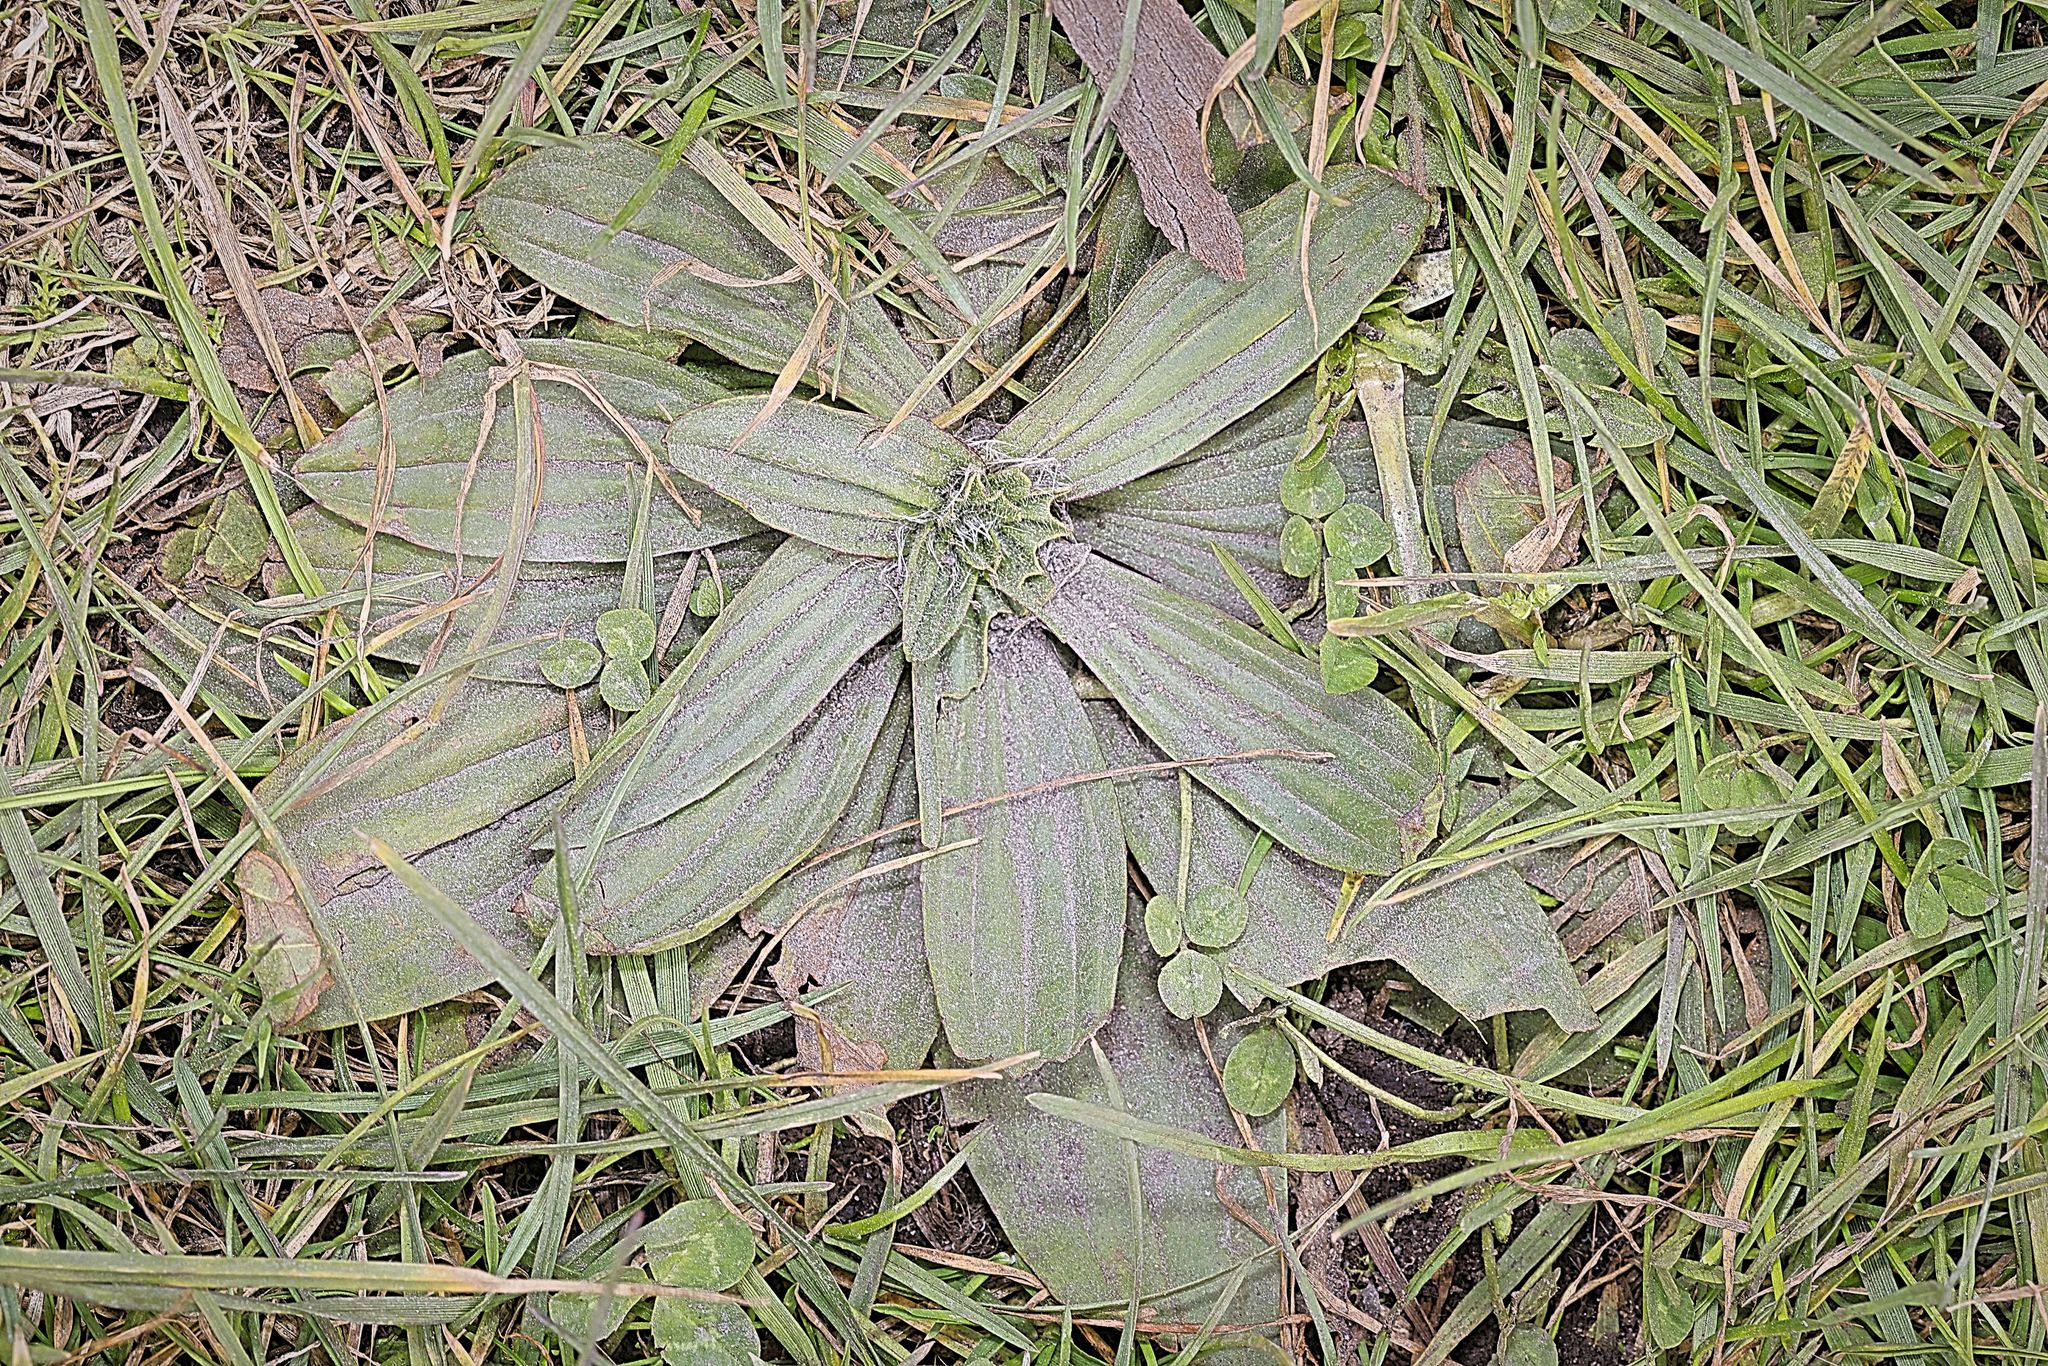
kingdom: Plantae
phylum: Tracheophyta
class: Magnoliopsida
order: Lamiales
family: Plantaginaceae
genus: Plantago
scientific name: Plantago lanceolata
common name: Ribwort plantain
